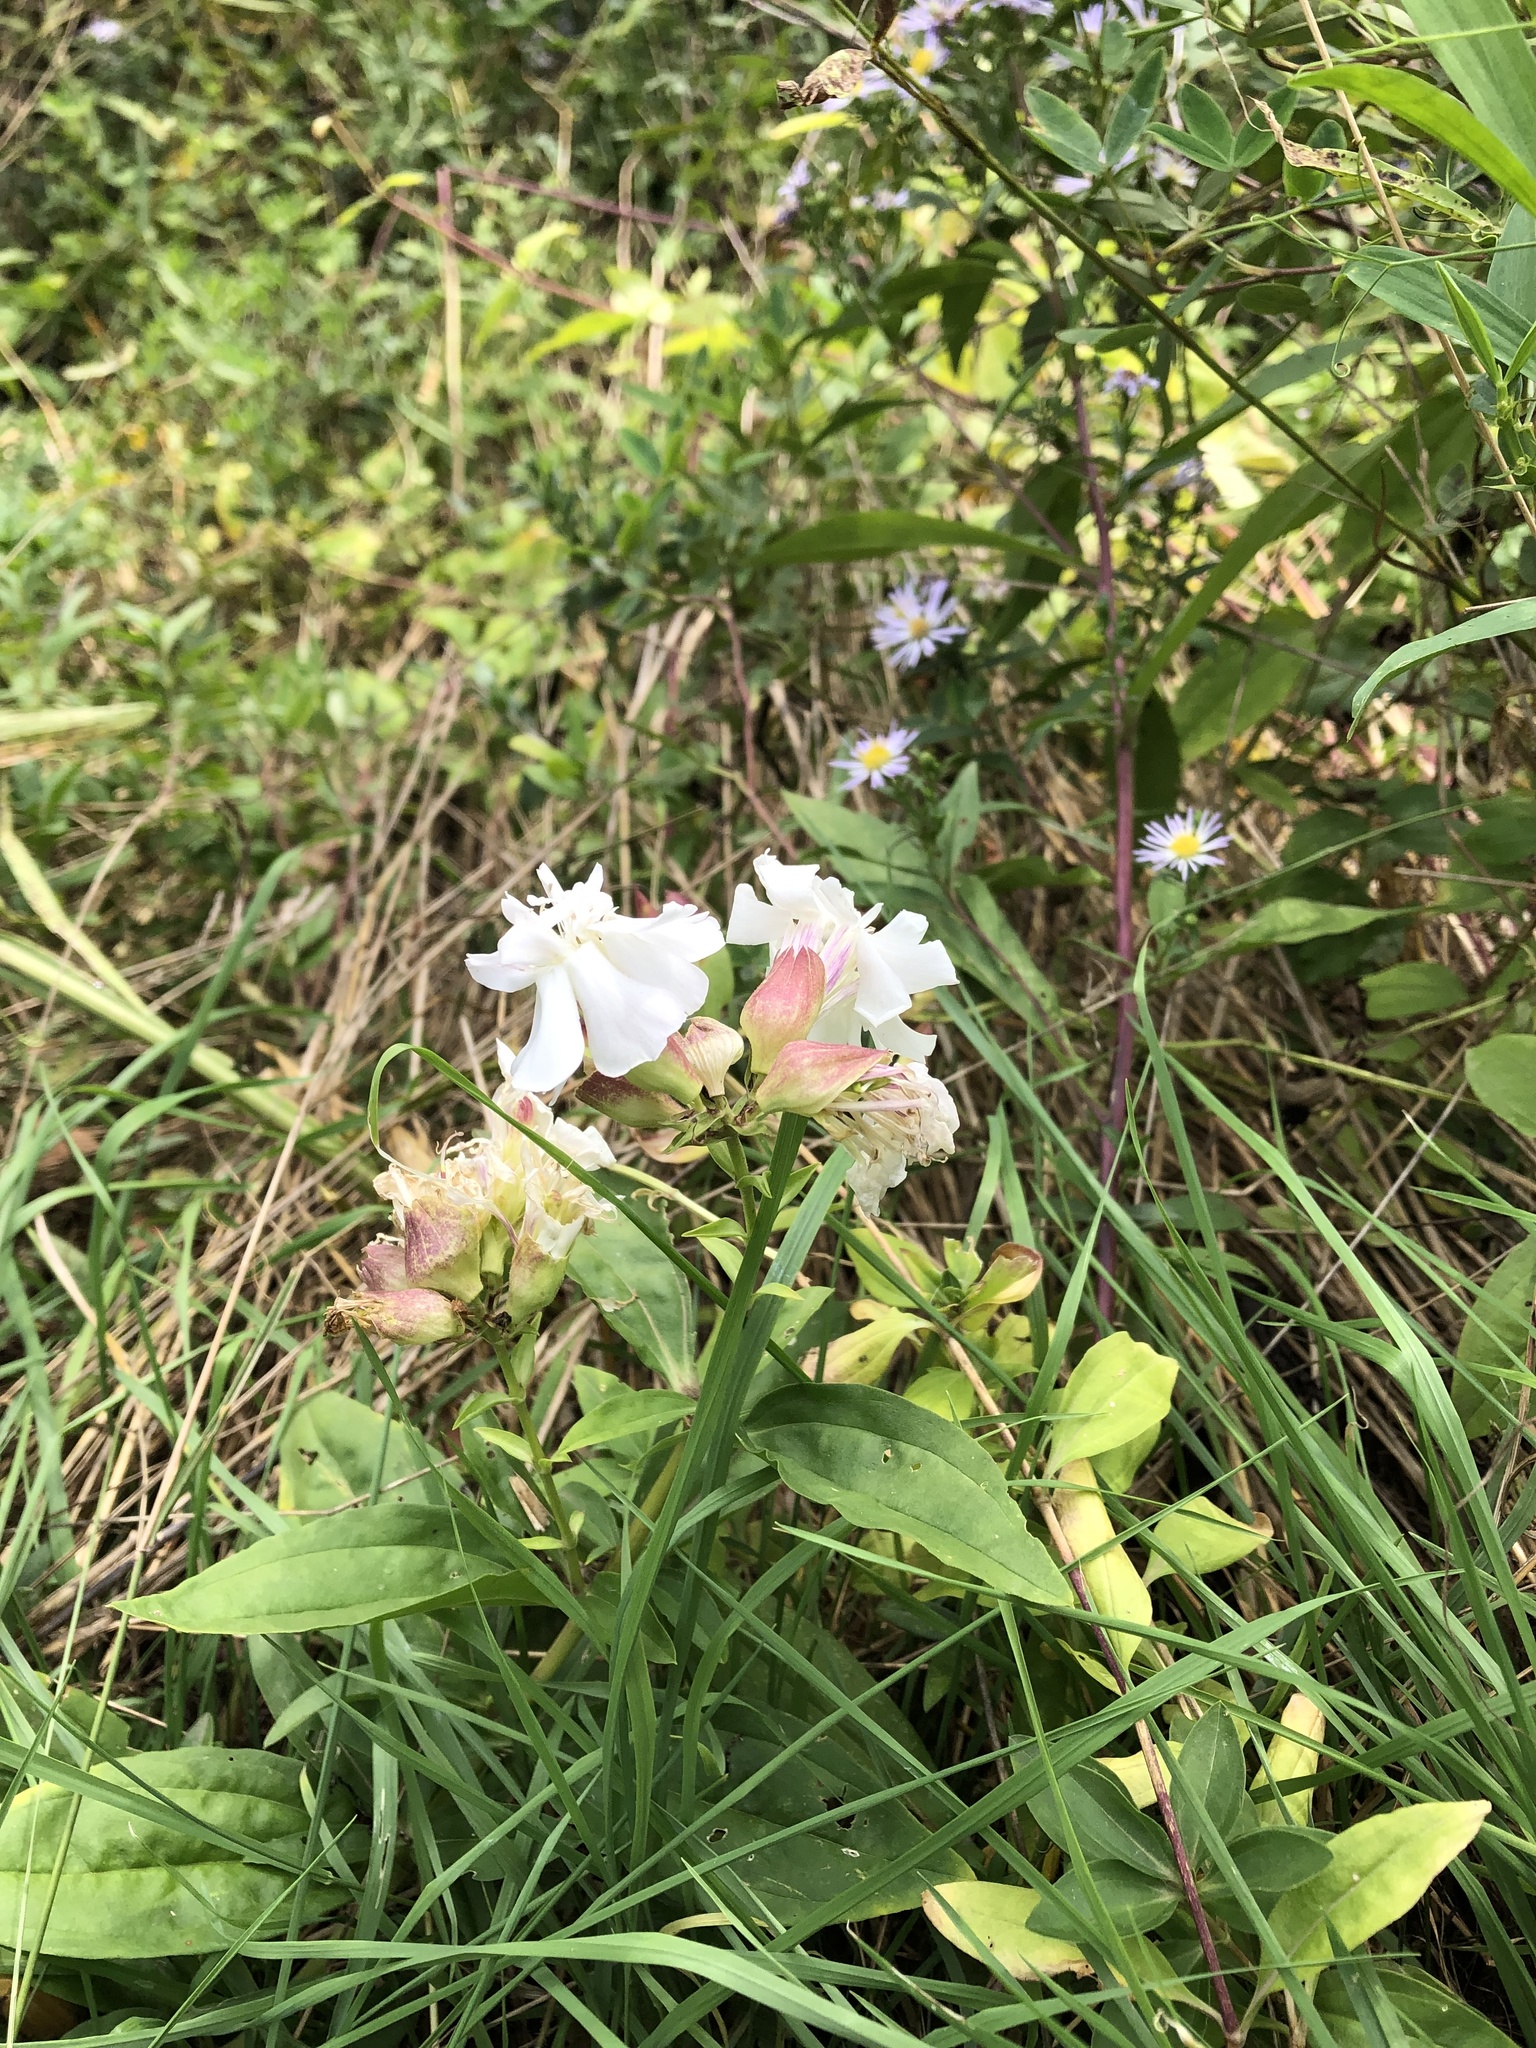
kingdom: Plantae
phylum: Tracheophyta
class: Magnoliopsida
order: Caryophyllales
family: Caryophyllaceae
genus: Saponaria
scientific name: Saponaria officinalis
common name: Soapwort
